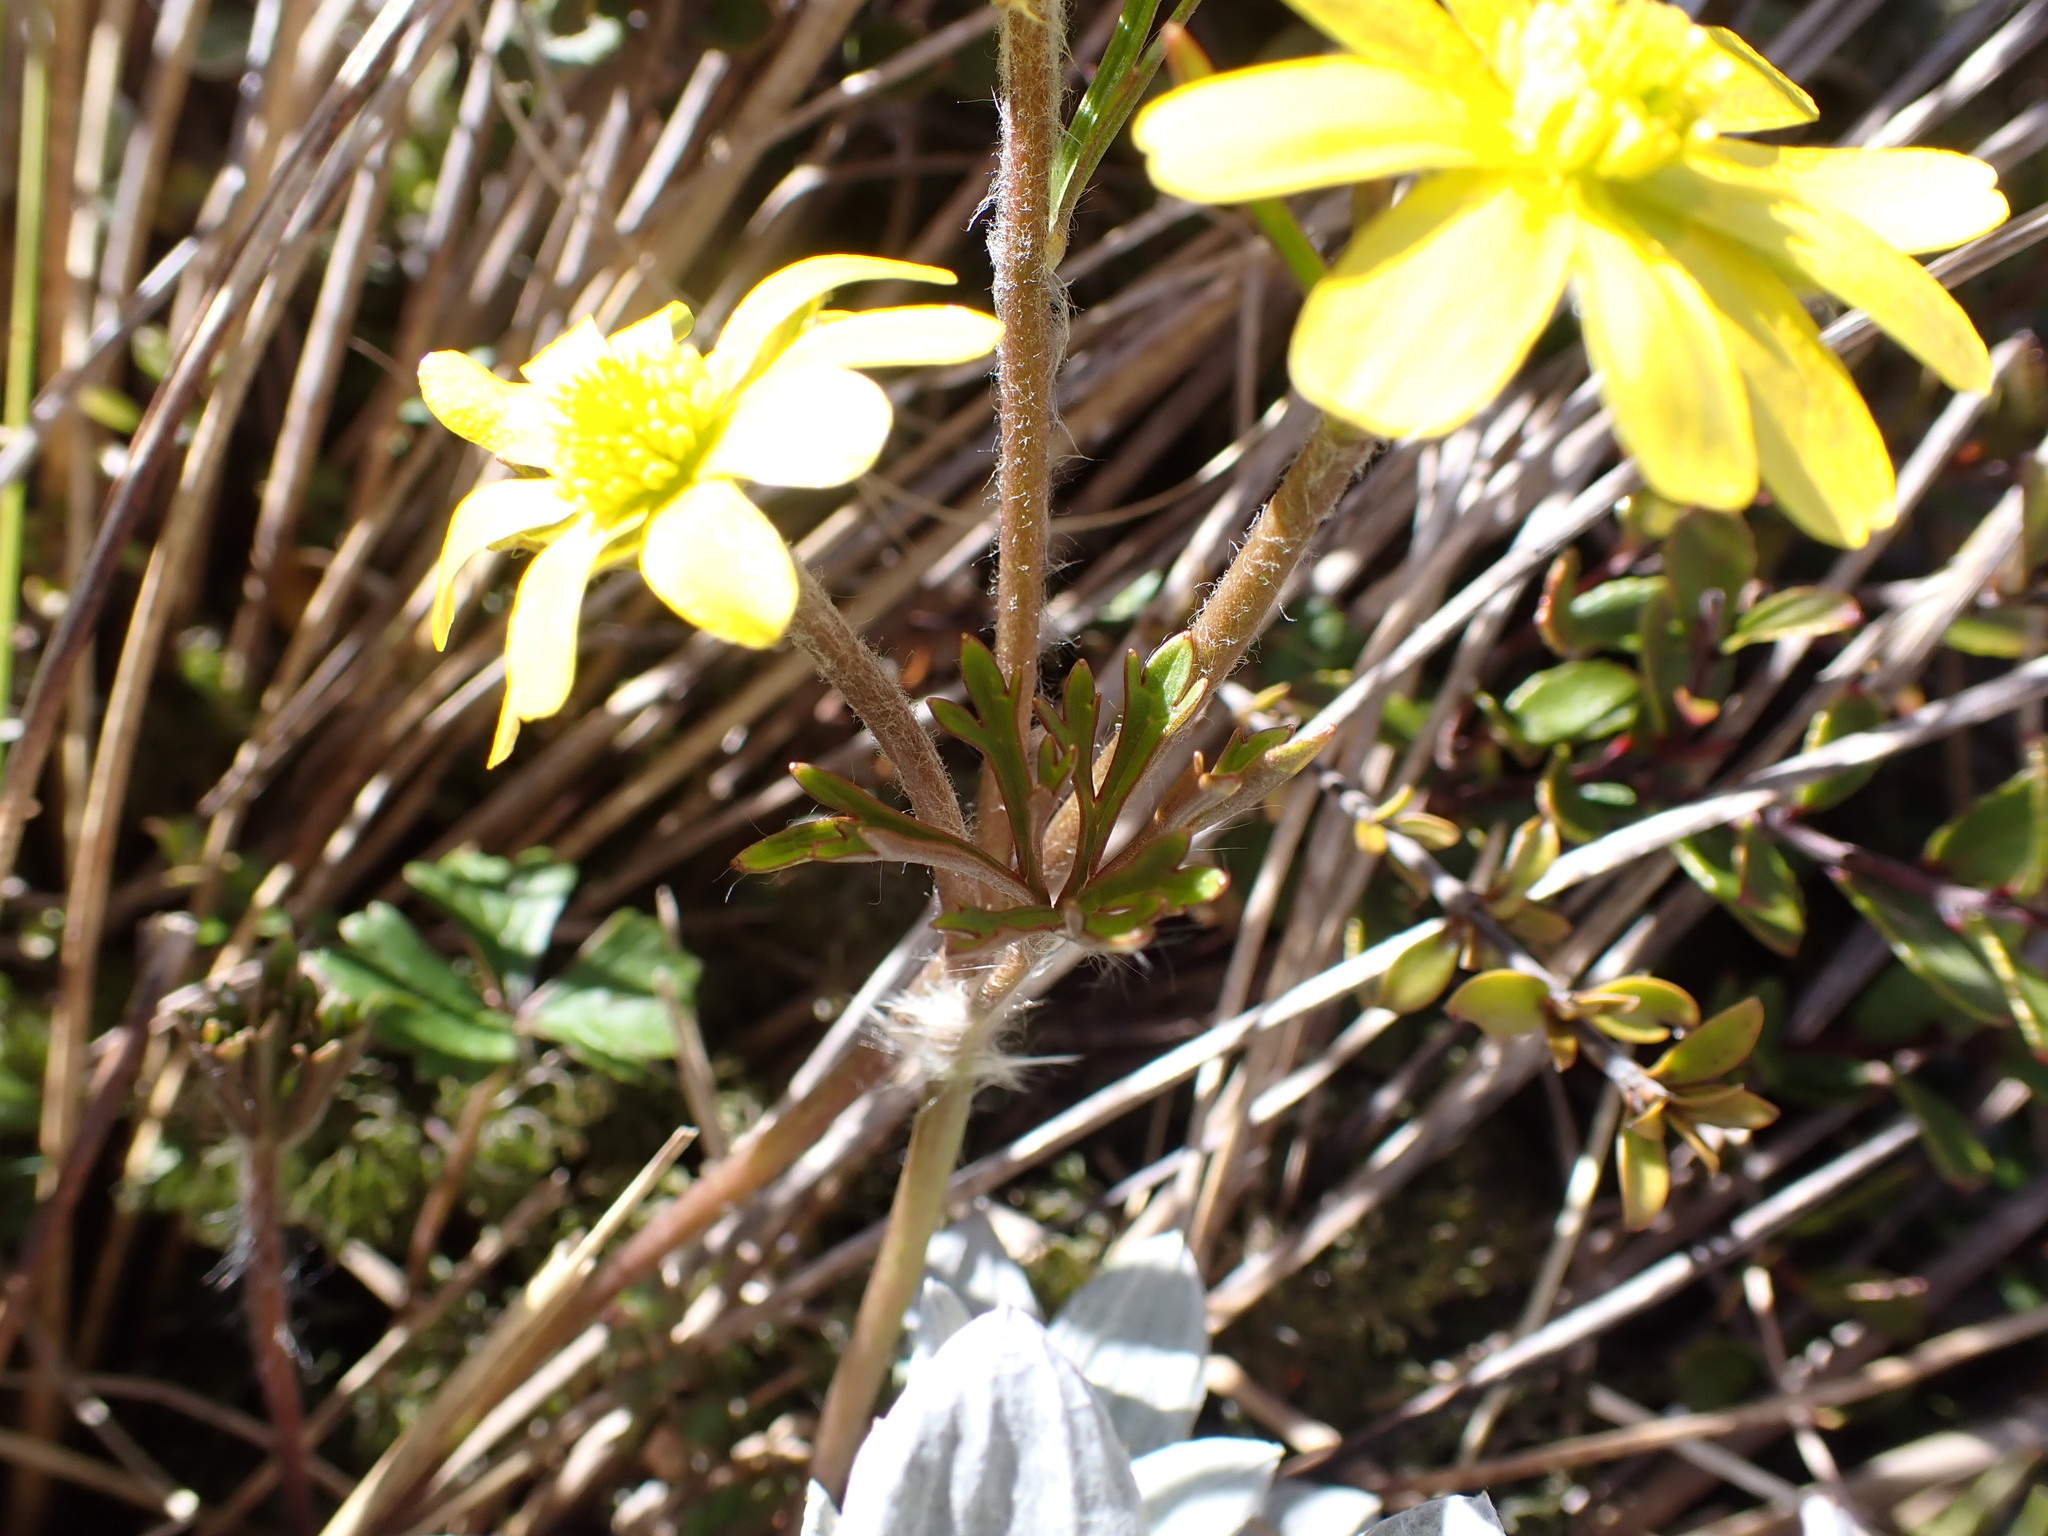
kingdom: Plantae
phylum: Tracheophyta
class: Magnoliopsida
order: Ranunculales
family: Ranunculaceae
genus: Ranunculus
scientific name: Ranunculus verticillatus
